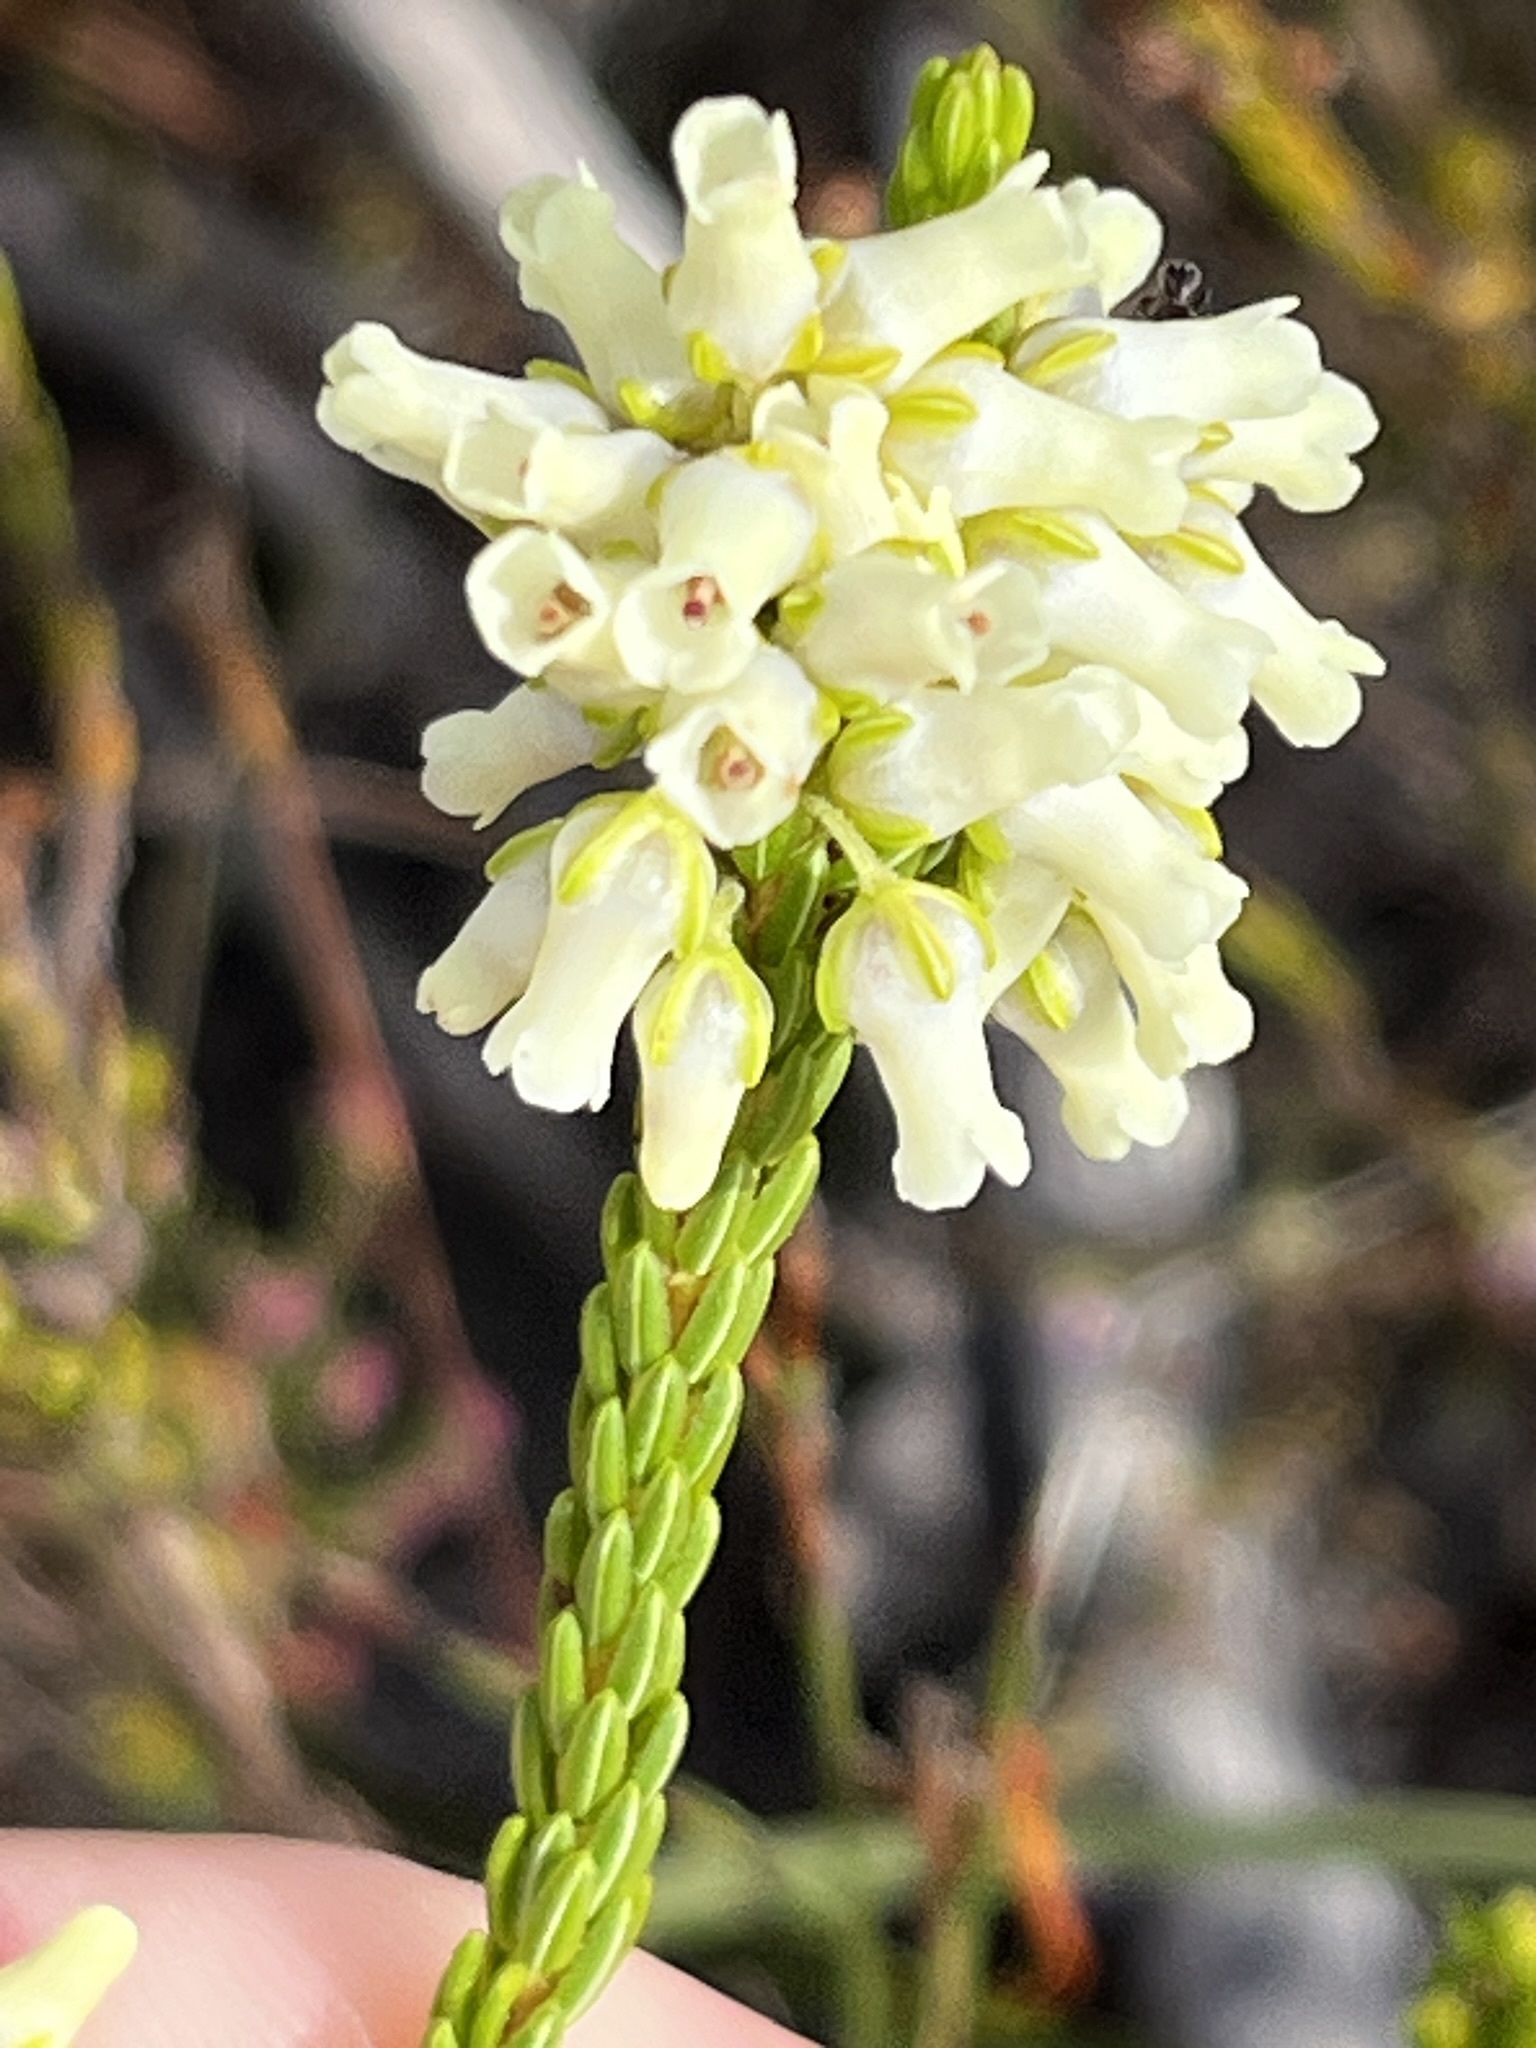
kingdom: Plantae
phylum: Tracheophyta
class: Magnoliopsida
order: Ericales
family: Ericaceae
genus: Erica
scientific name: Erica flavicoma
